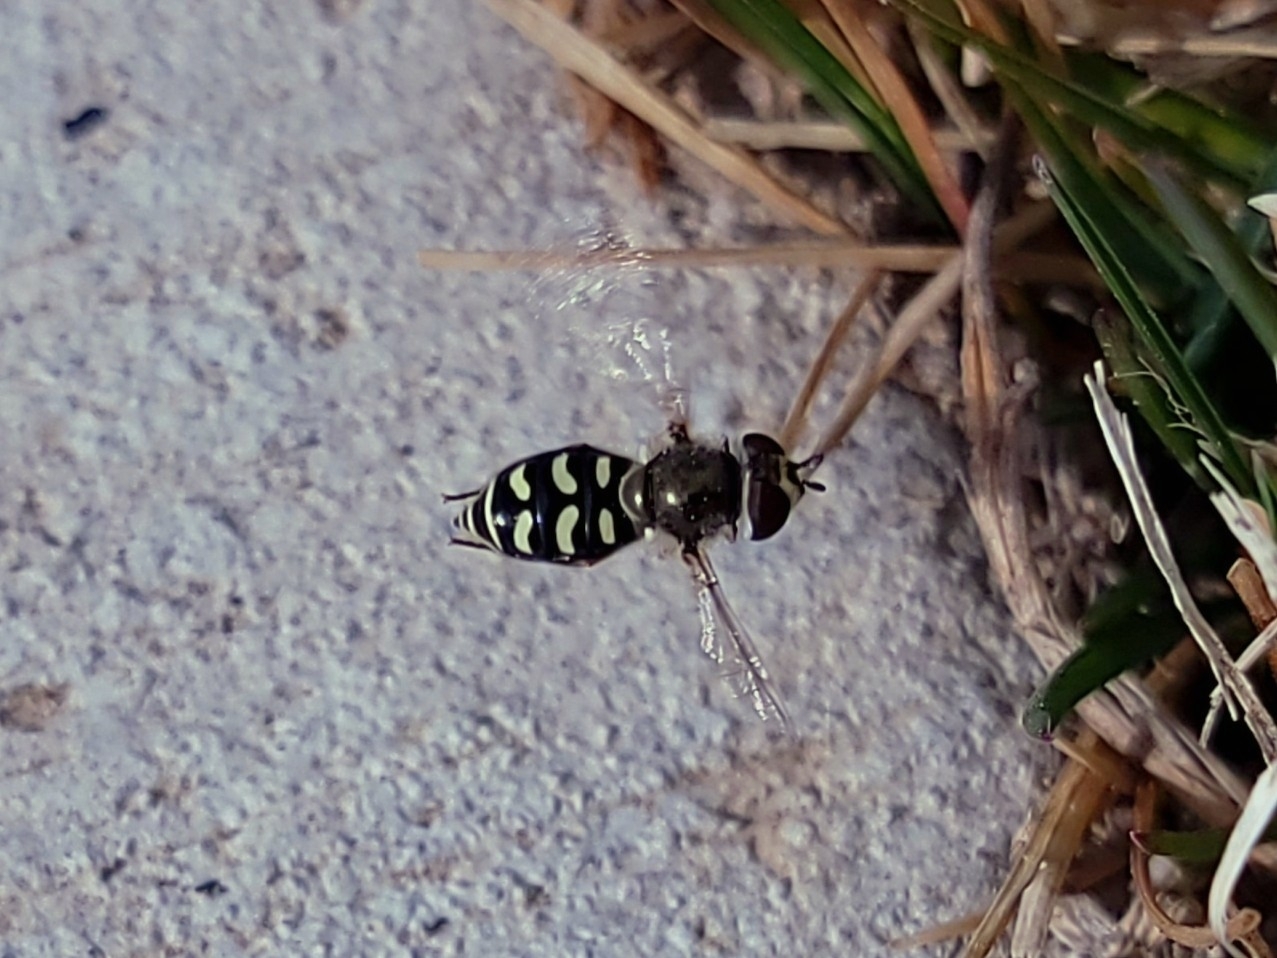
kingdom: Animalia
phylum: Arthropoda
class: Insecta
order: Diptera
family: Syrphidae
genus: Eupeodes
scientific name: Eupeodes volucris
